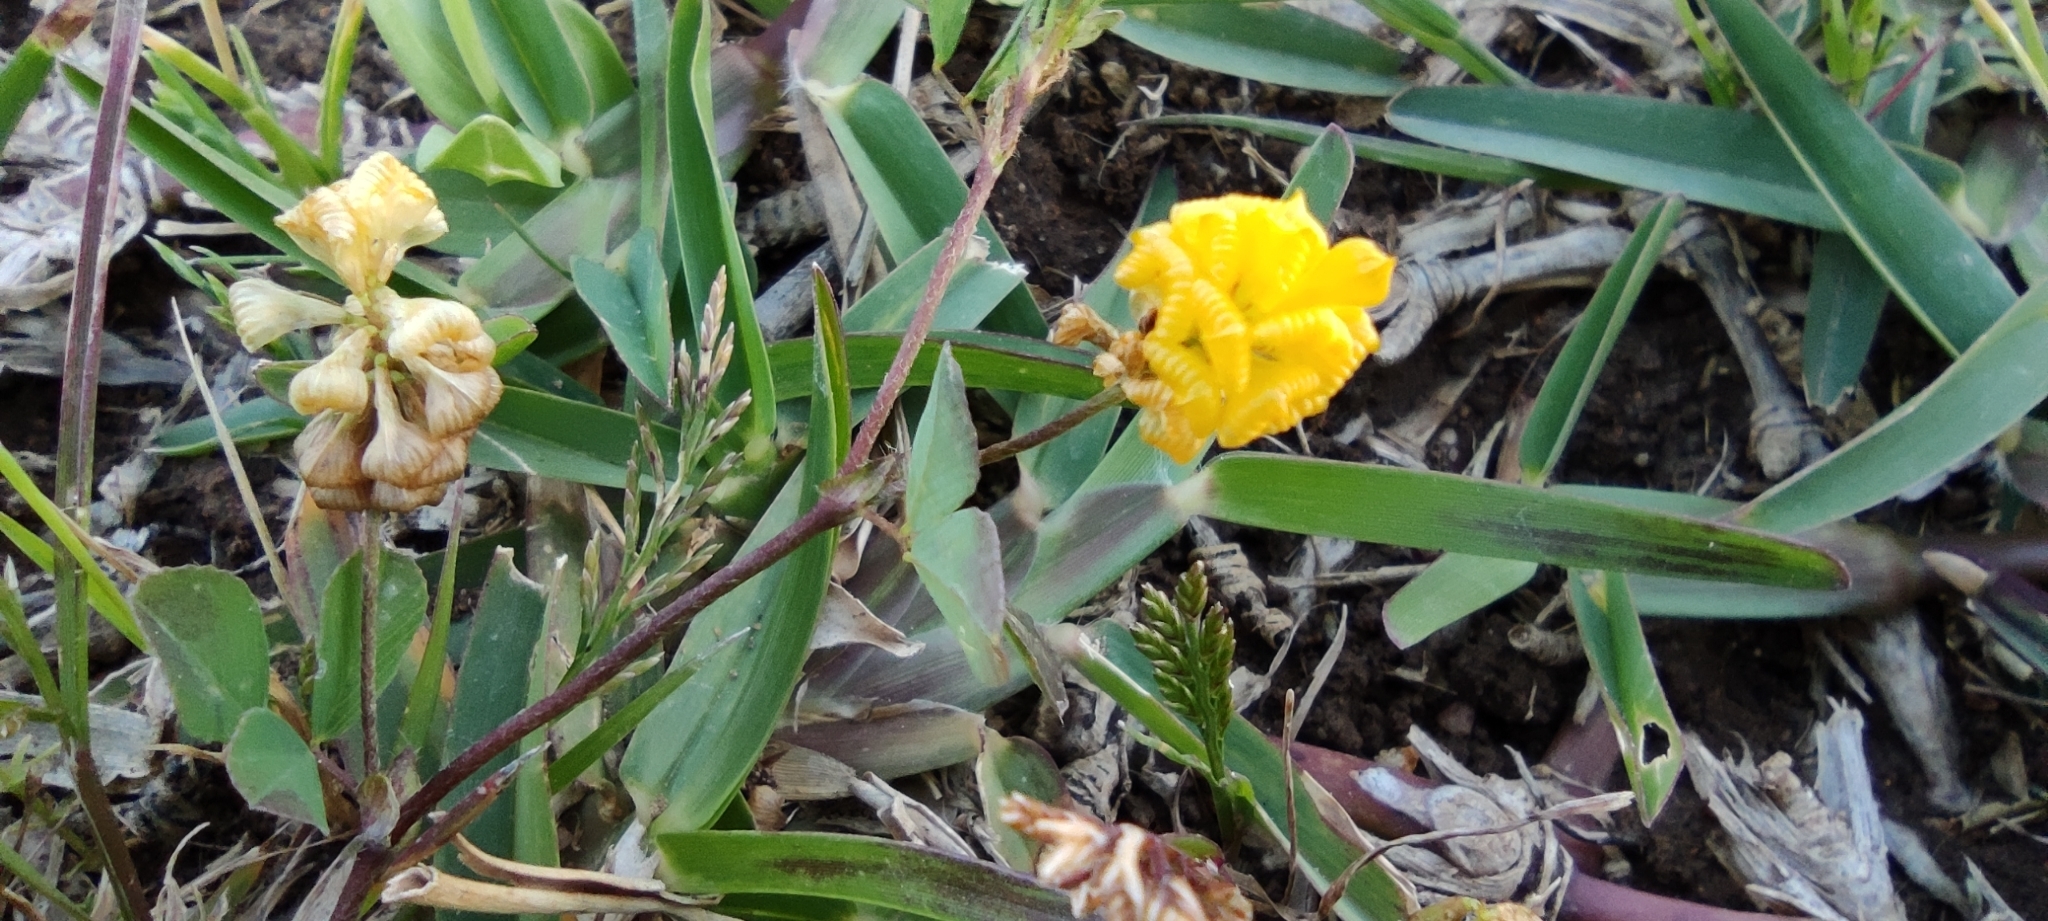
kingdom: Plantae
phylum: Tracheophyta
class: Magnoliopsida
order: Fabales
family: Fabaceae
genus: Trifolium
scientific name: Trifolium campestre
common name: Field clover
